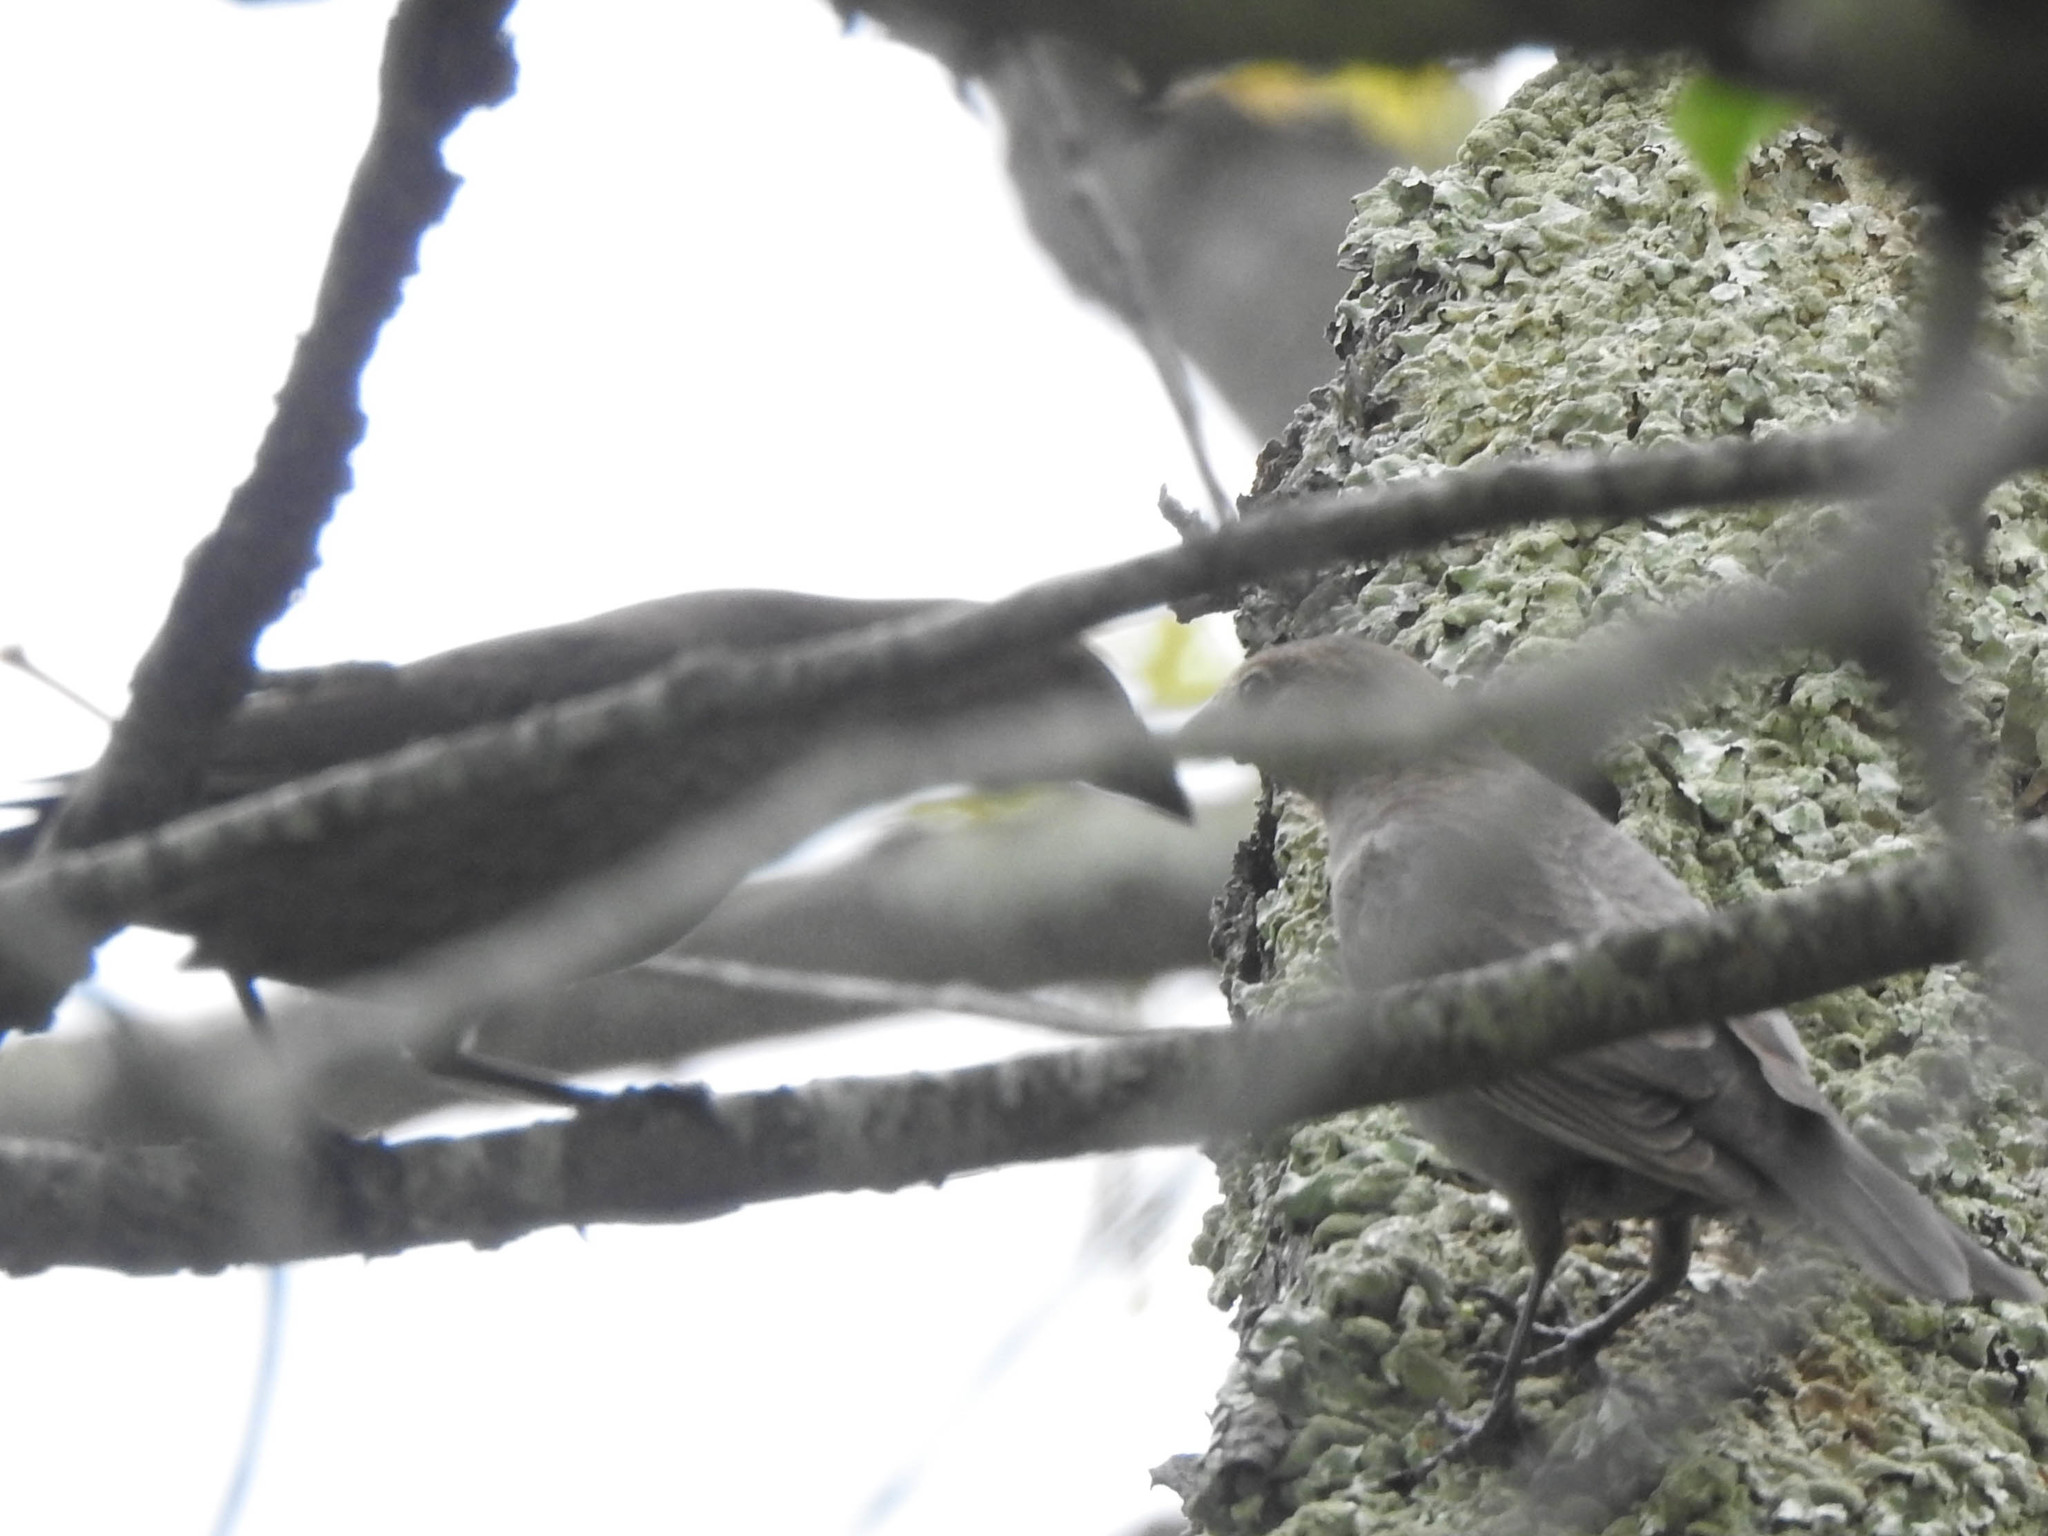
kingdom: Animalia
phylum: Chordata
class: Aves
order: Passeriformes
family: Icteridae
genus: Molothrus
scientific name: Molothrus ater
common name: Brown-headed cowbird
